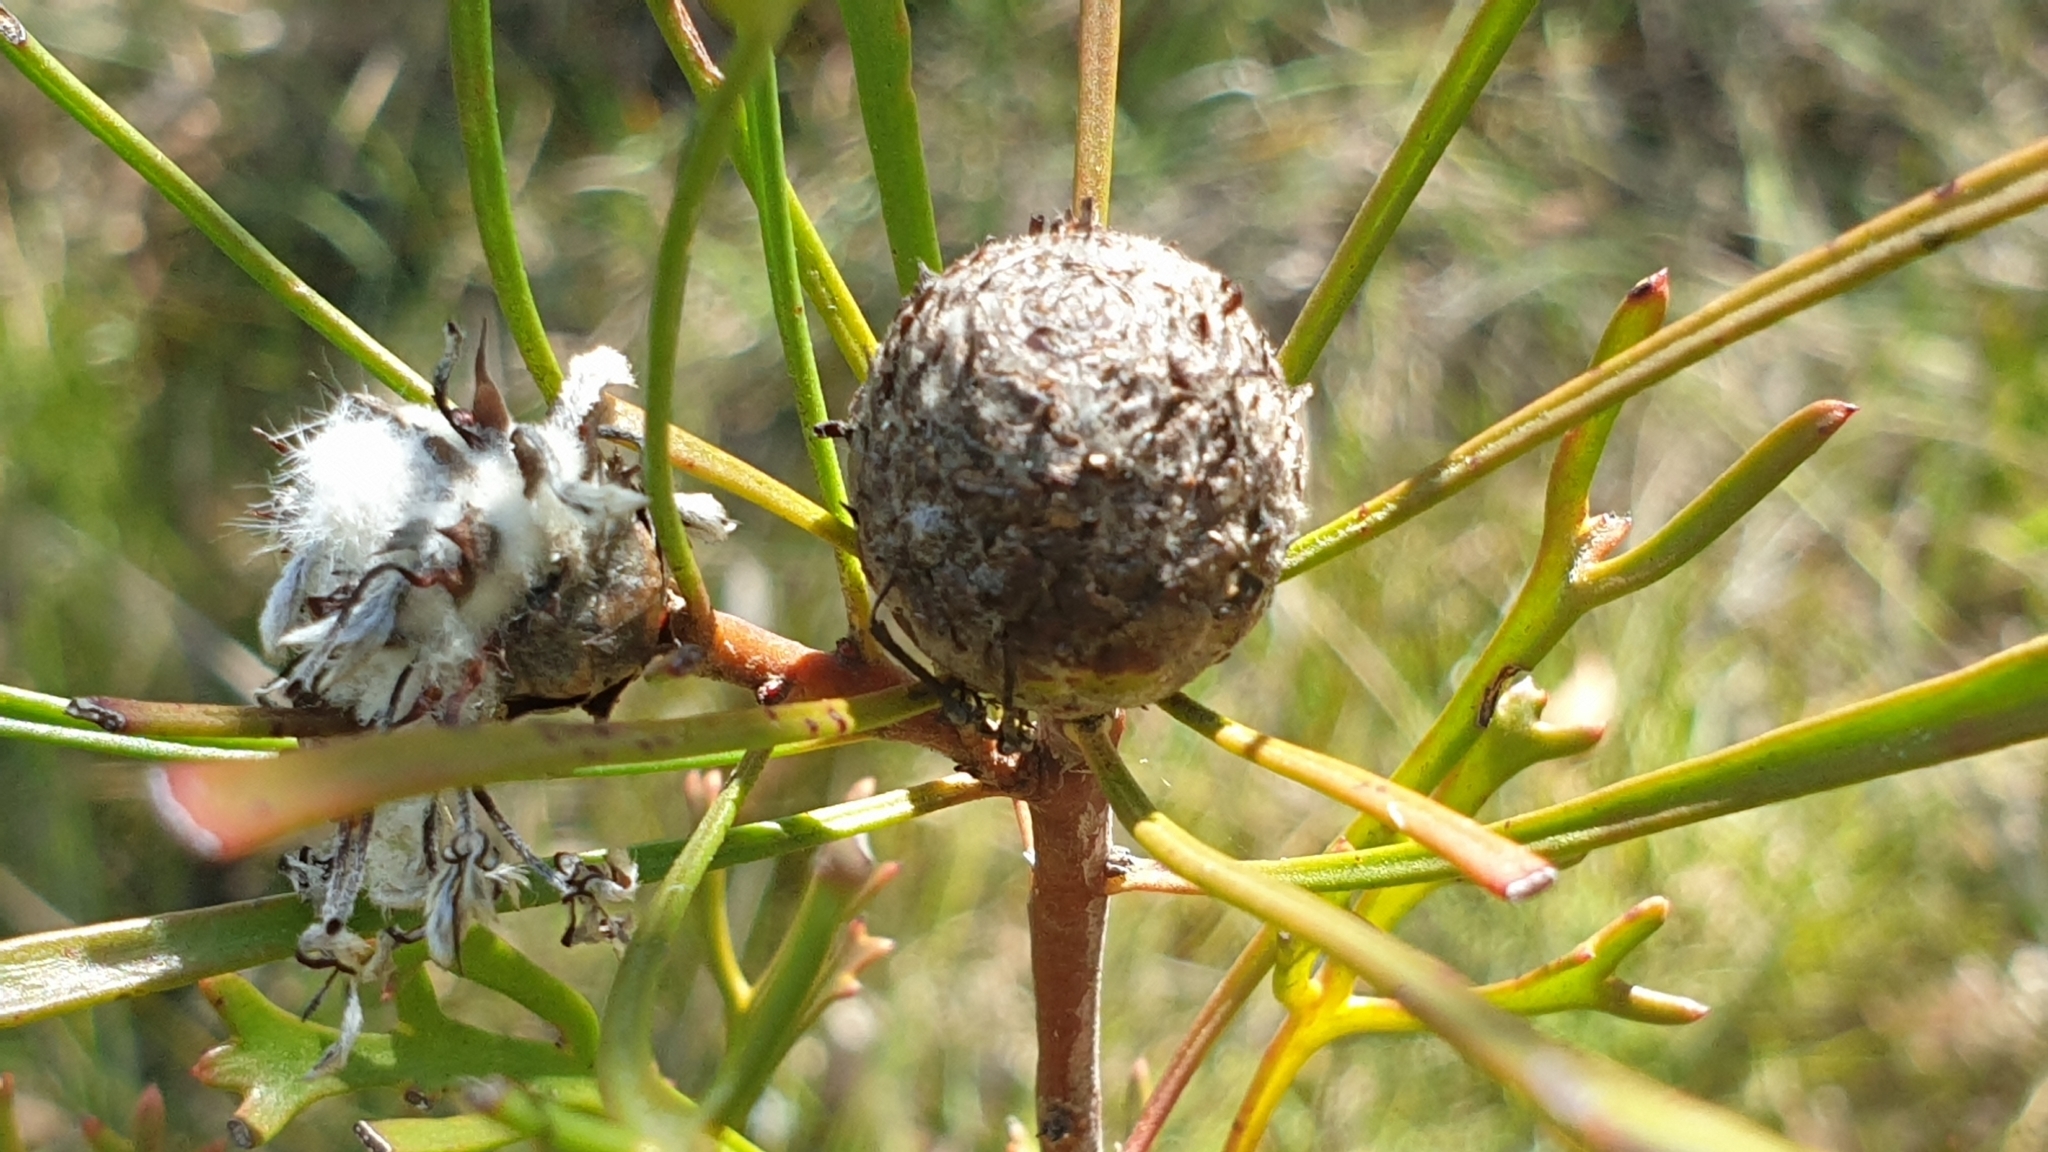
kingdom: Plantae
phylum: Tracheophyta
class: Magnoliopsida
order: Proteales
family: Proteaceae
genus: Isopogon
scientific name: Isopogon mnoraifolius
